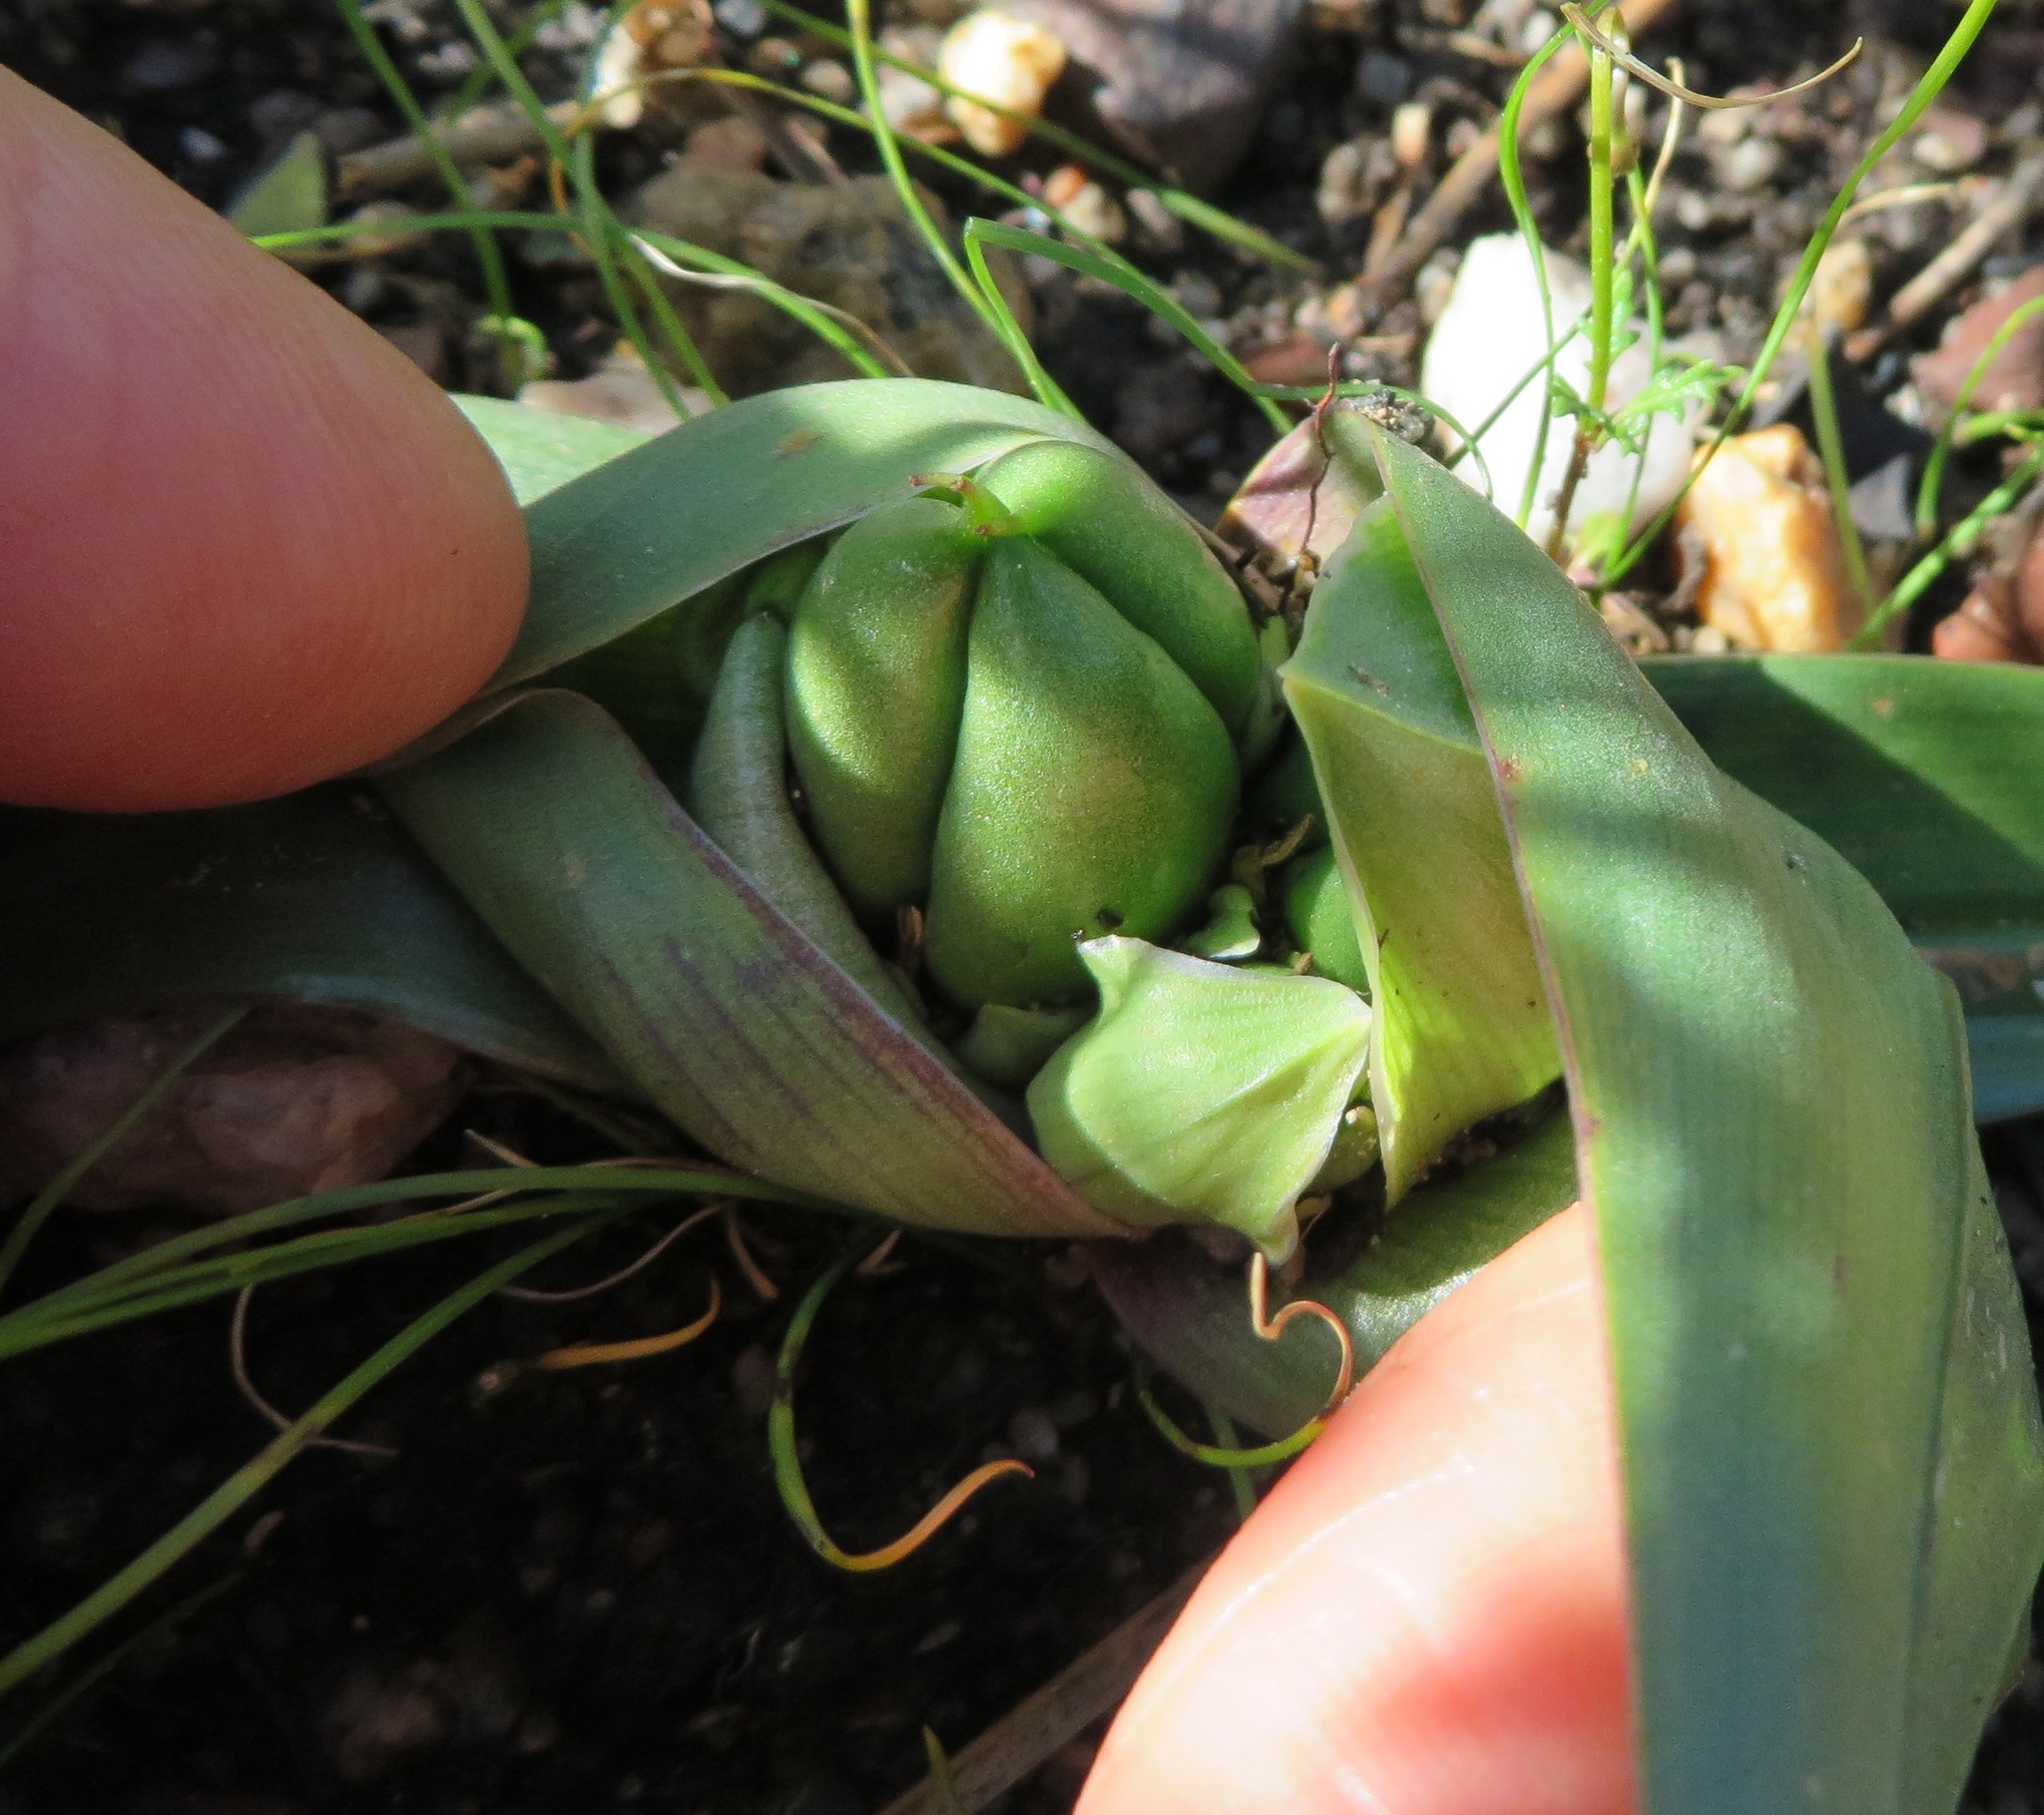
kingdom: Plantae
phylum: Tracheophyta
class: Liliopsida
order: Liliales
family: Colchicaceae
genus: Colchicum
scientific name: Colchicum eucomoides
